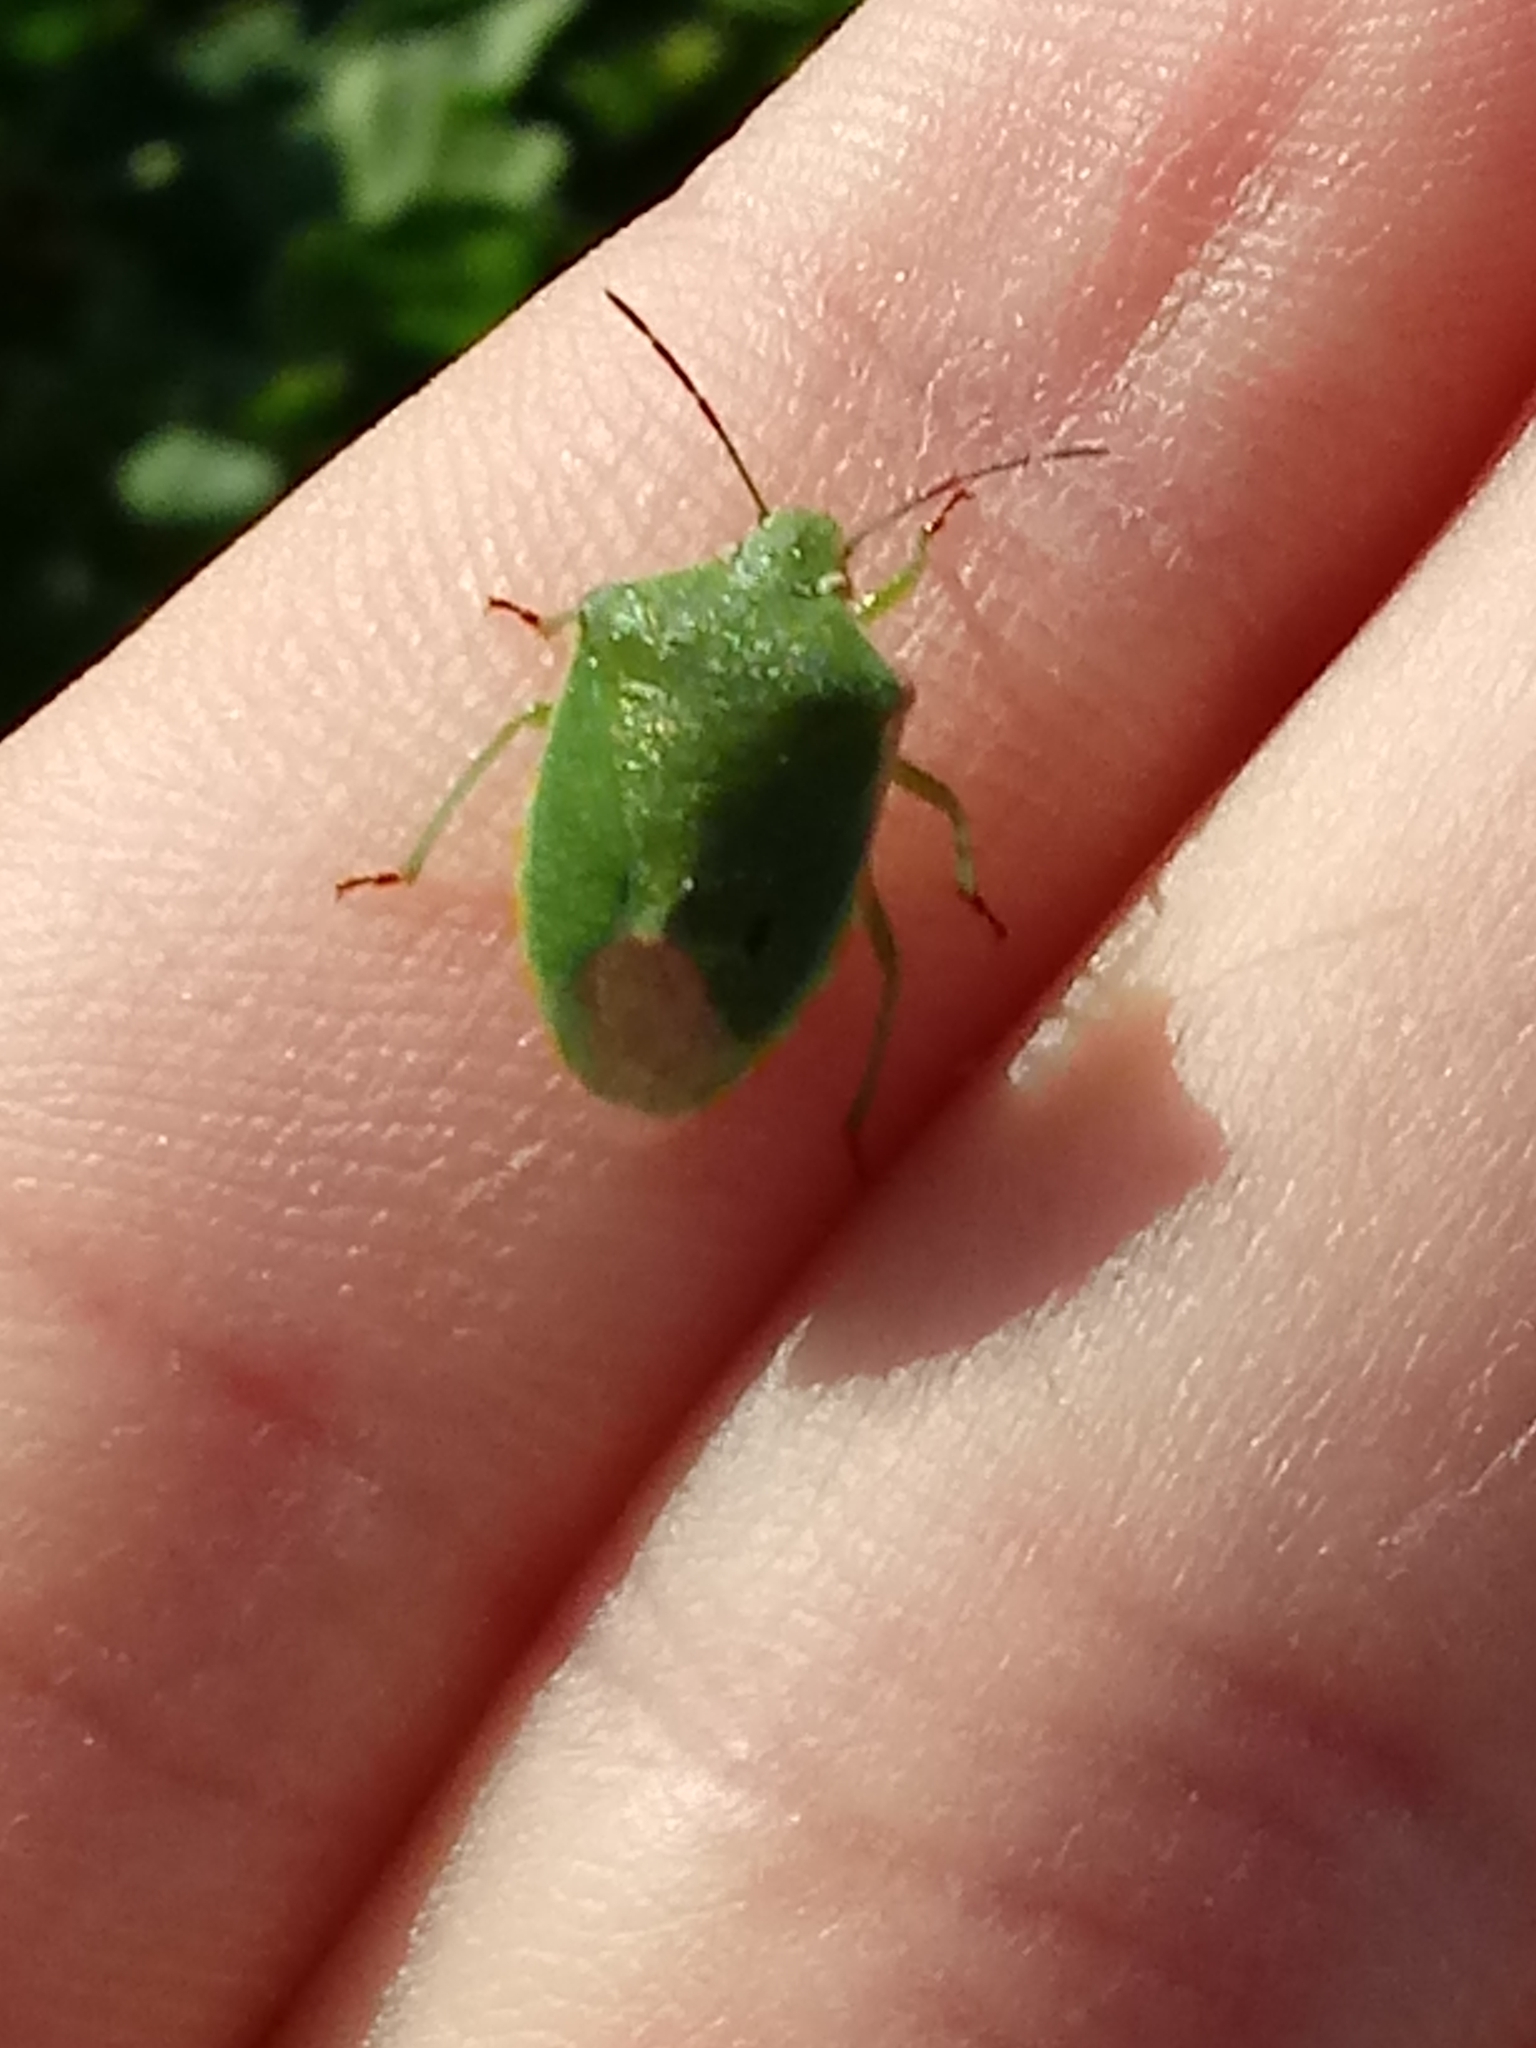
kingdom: Animalia
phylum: Arthropoda
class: Insecta
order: Hemiptera
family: Pentatomidae
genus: Thyanta
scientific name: Thyanta accerra
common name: Stink bug
